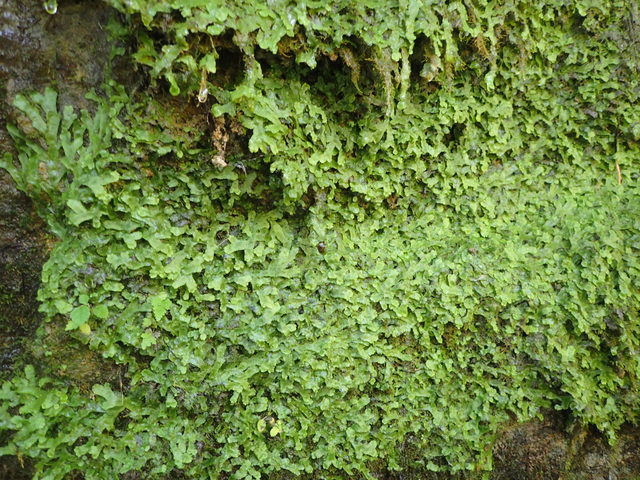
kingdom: Plantae
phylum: Marchantiophyta
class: Marchantiopsida
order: Marchantiales
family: Conocephalaceae
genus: Conocephalum
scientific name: Conocephalum salebrosum
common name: Cat-tongue liverwort
